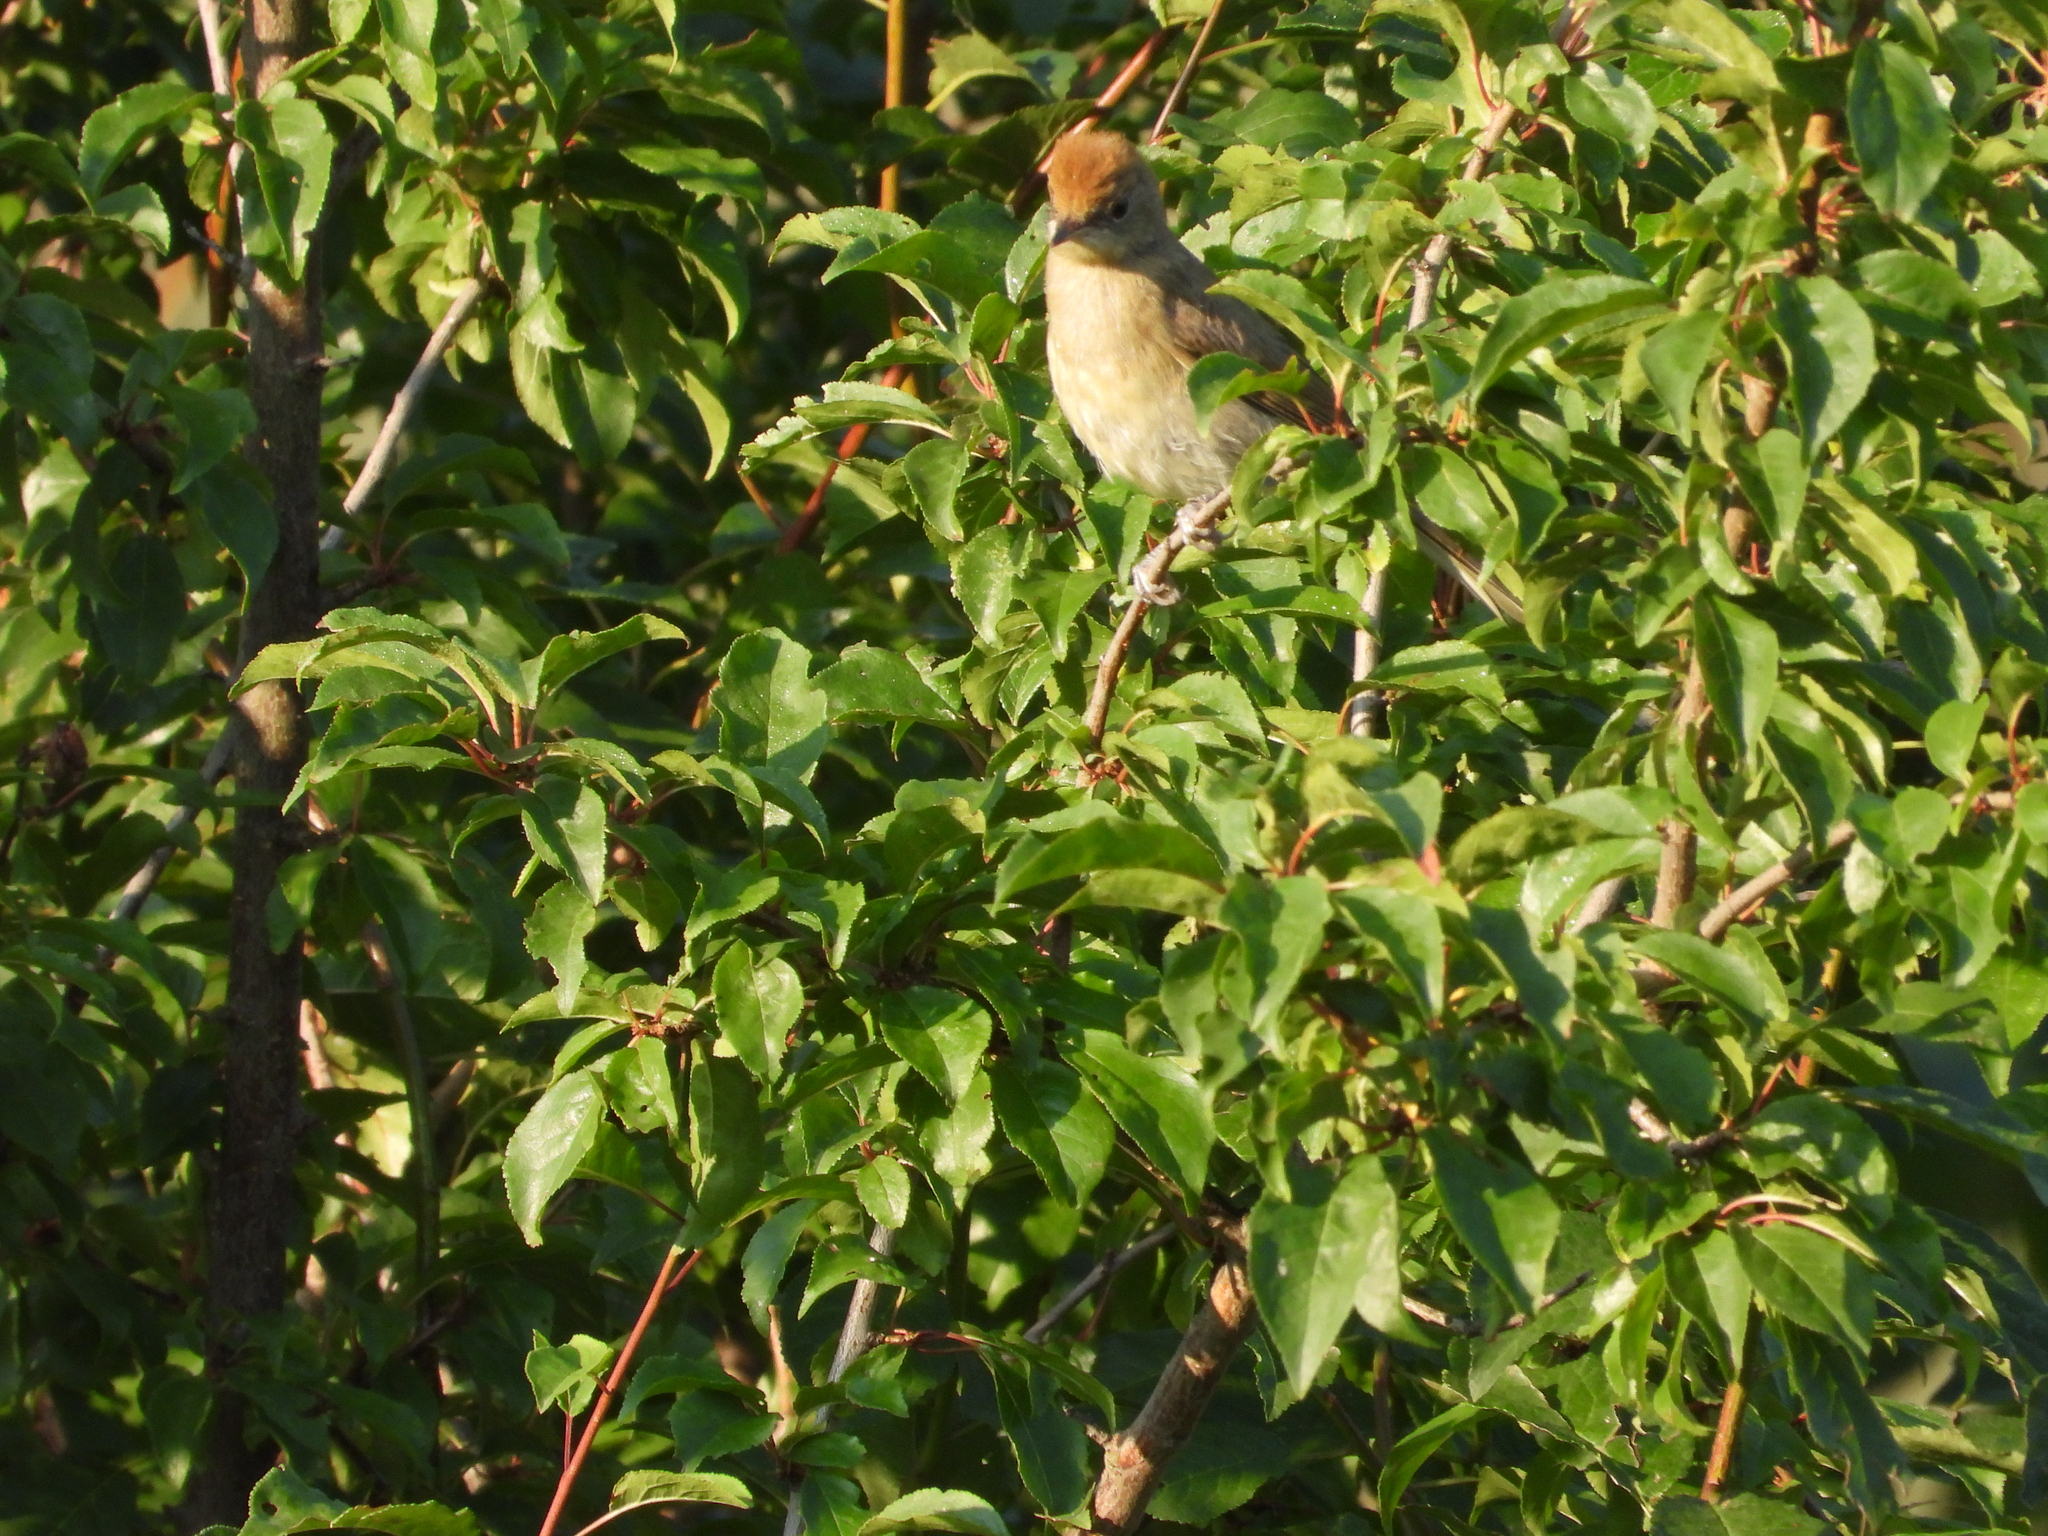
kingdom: Animalia
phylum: Chordata
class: Aves
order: Passeriformes
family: Sylviidae
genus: Sylvia
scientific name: Sylvia atricapilla
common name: Eurasian blackcap
